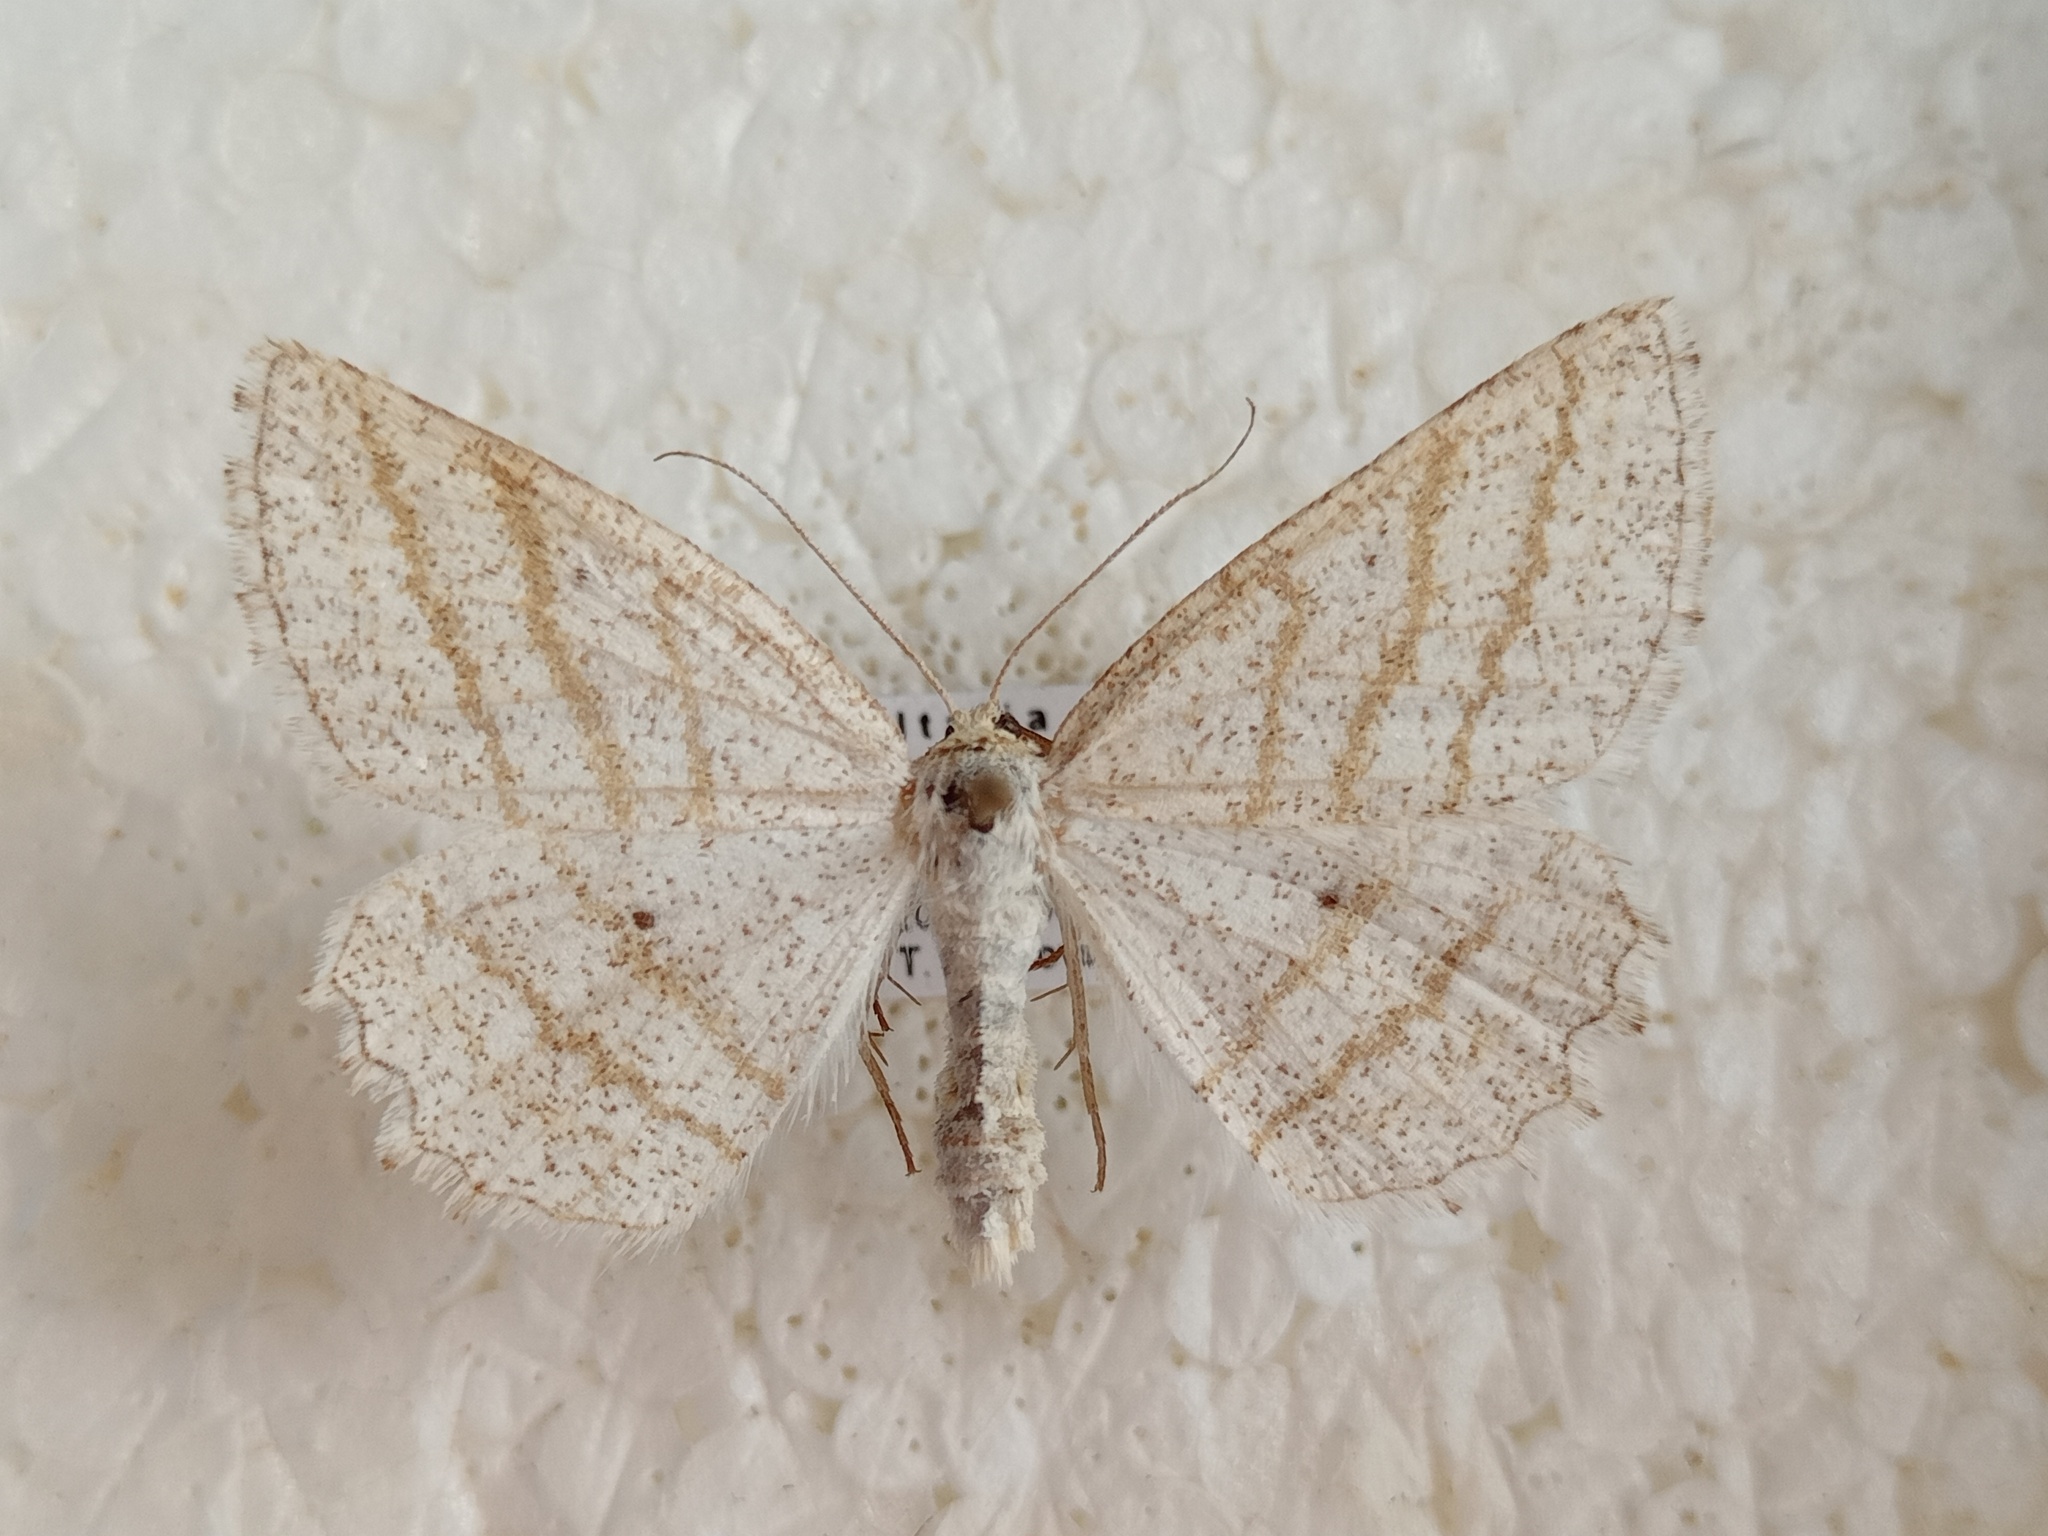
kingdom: Animalia
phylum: Arthropoda
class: Insecta
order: Lepidoptera
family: Geometridae
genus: Perconia
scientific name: Perconia strigillaria
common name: Grass wave
